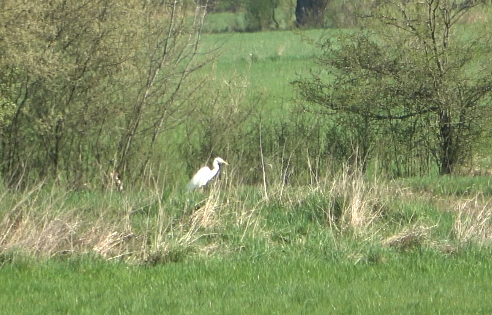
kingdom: Animalia
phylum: Chordata
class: Aves
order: Pelecaniformes
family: Ardeidae
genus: Ardea
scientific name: Ardea alba
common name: Great egret
